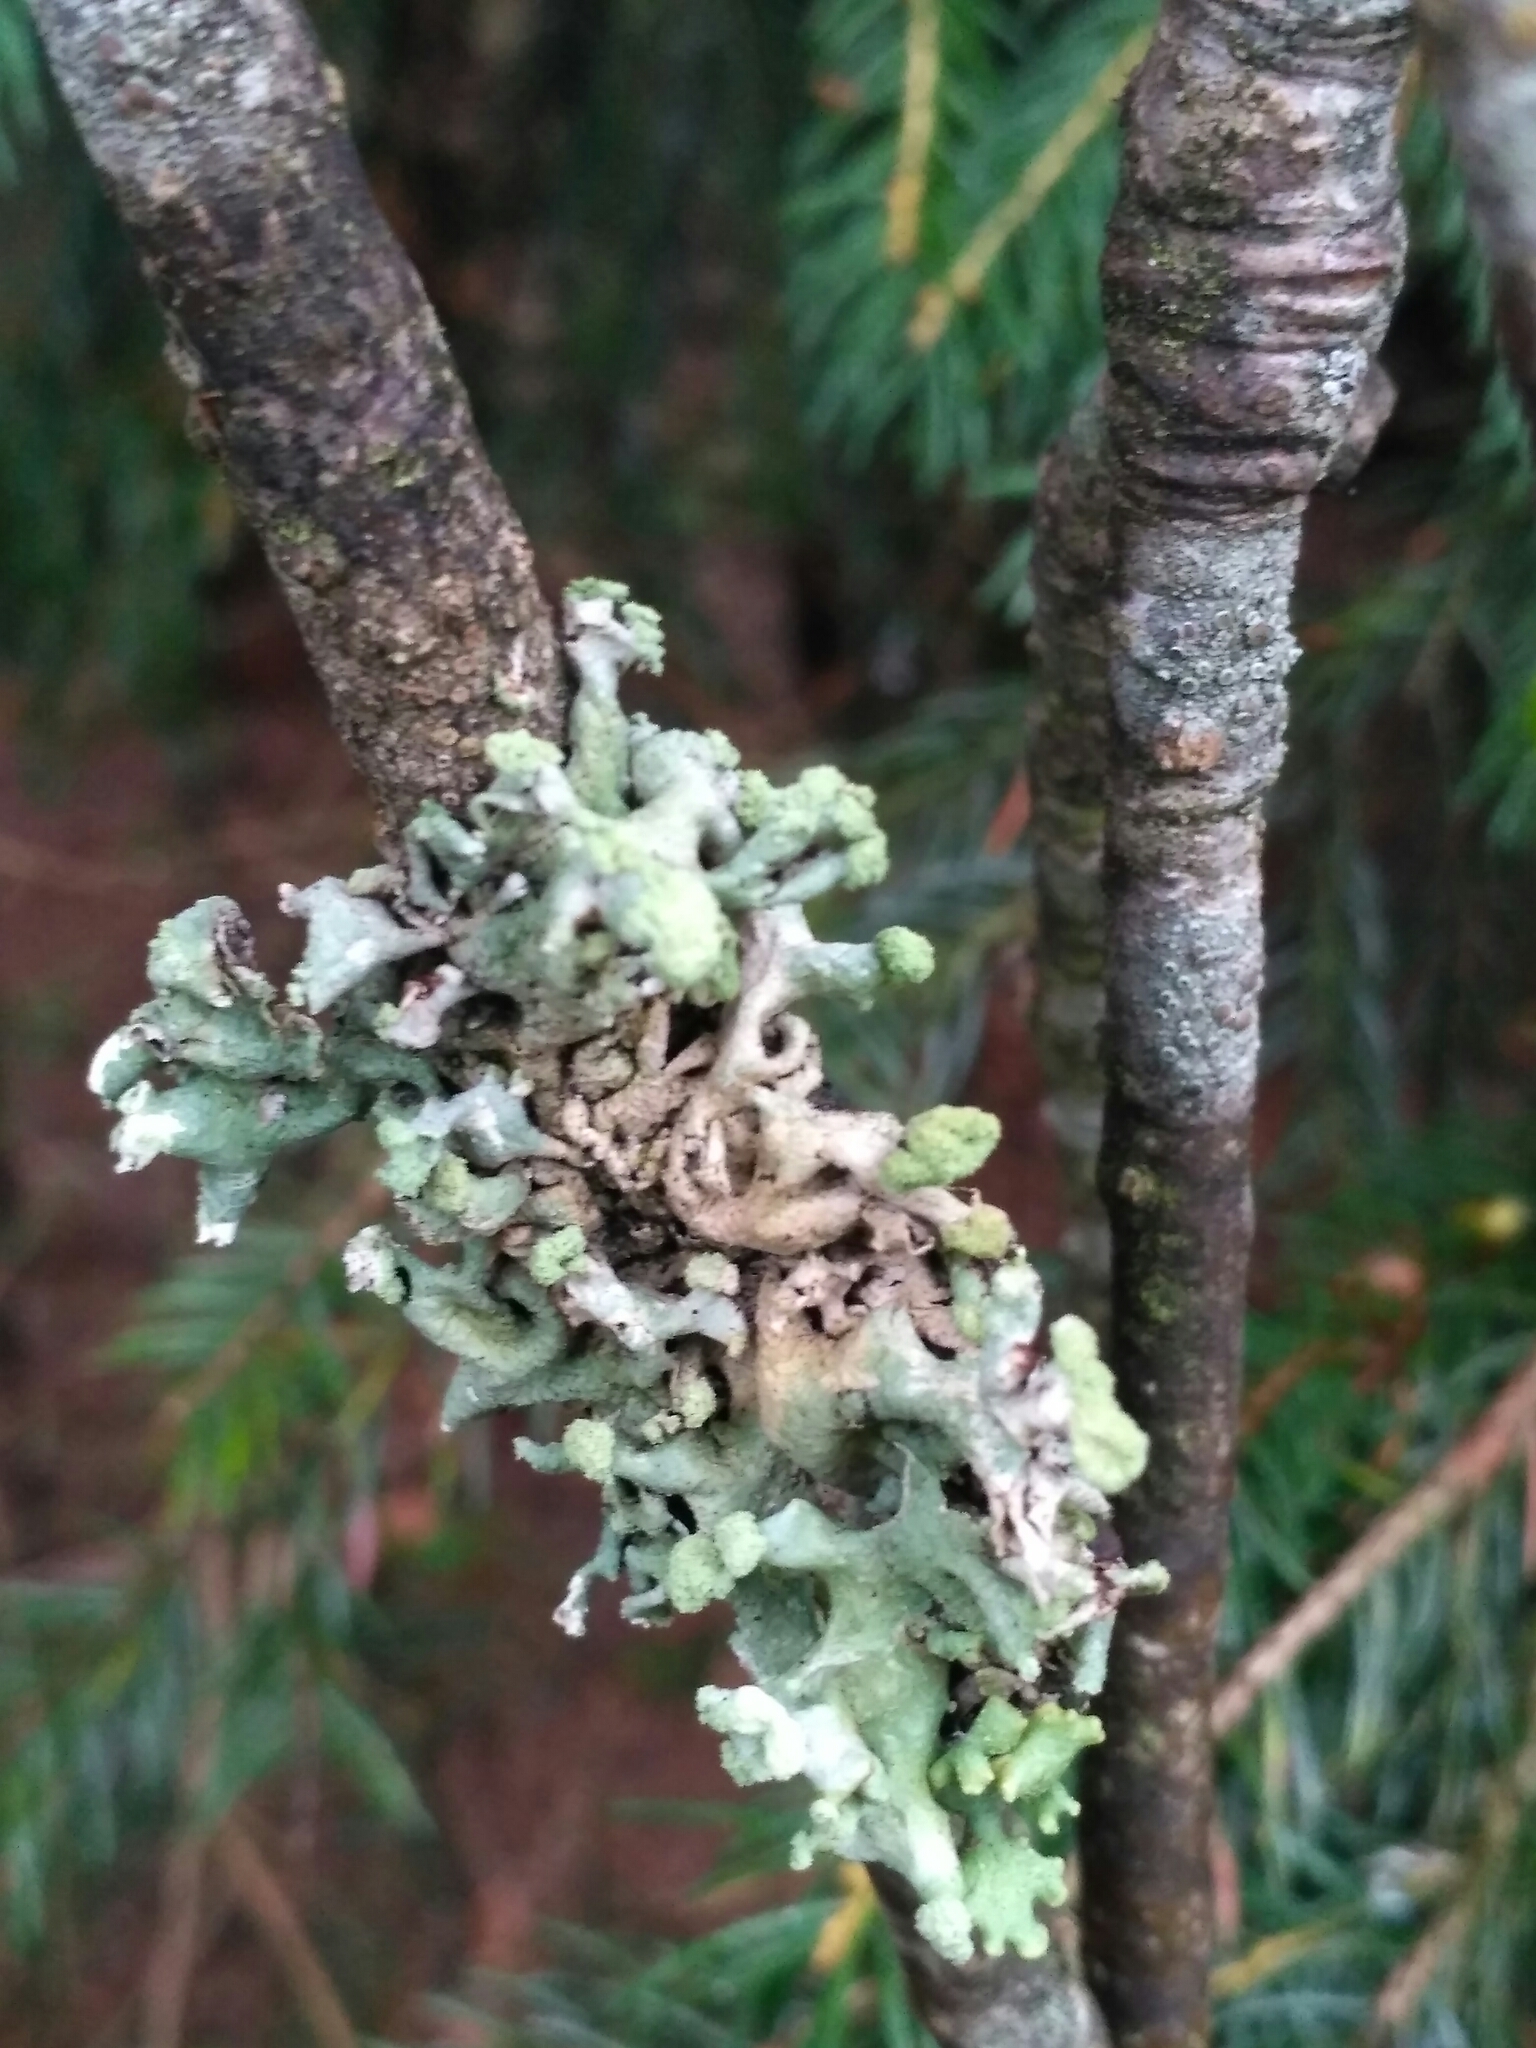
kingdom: Fungi
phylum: Ascomycota
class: Lecanoromycetes
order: Lecanorales
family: Parmeliaceae
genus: Hypogymnia
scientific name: Hypogymnia tubulosa
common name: Powder-headed tube lichen
